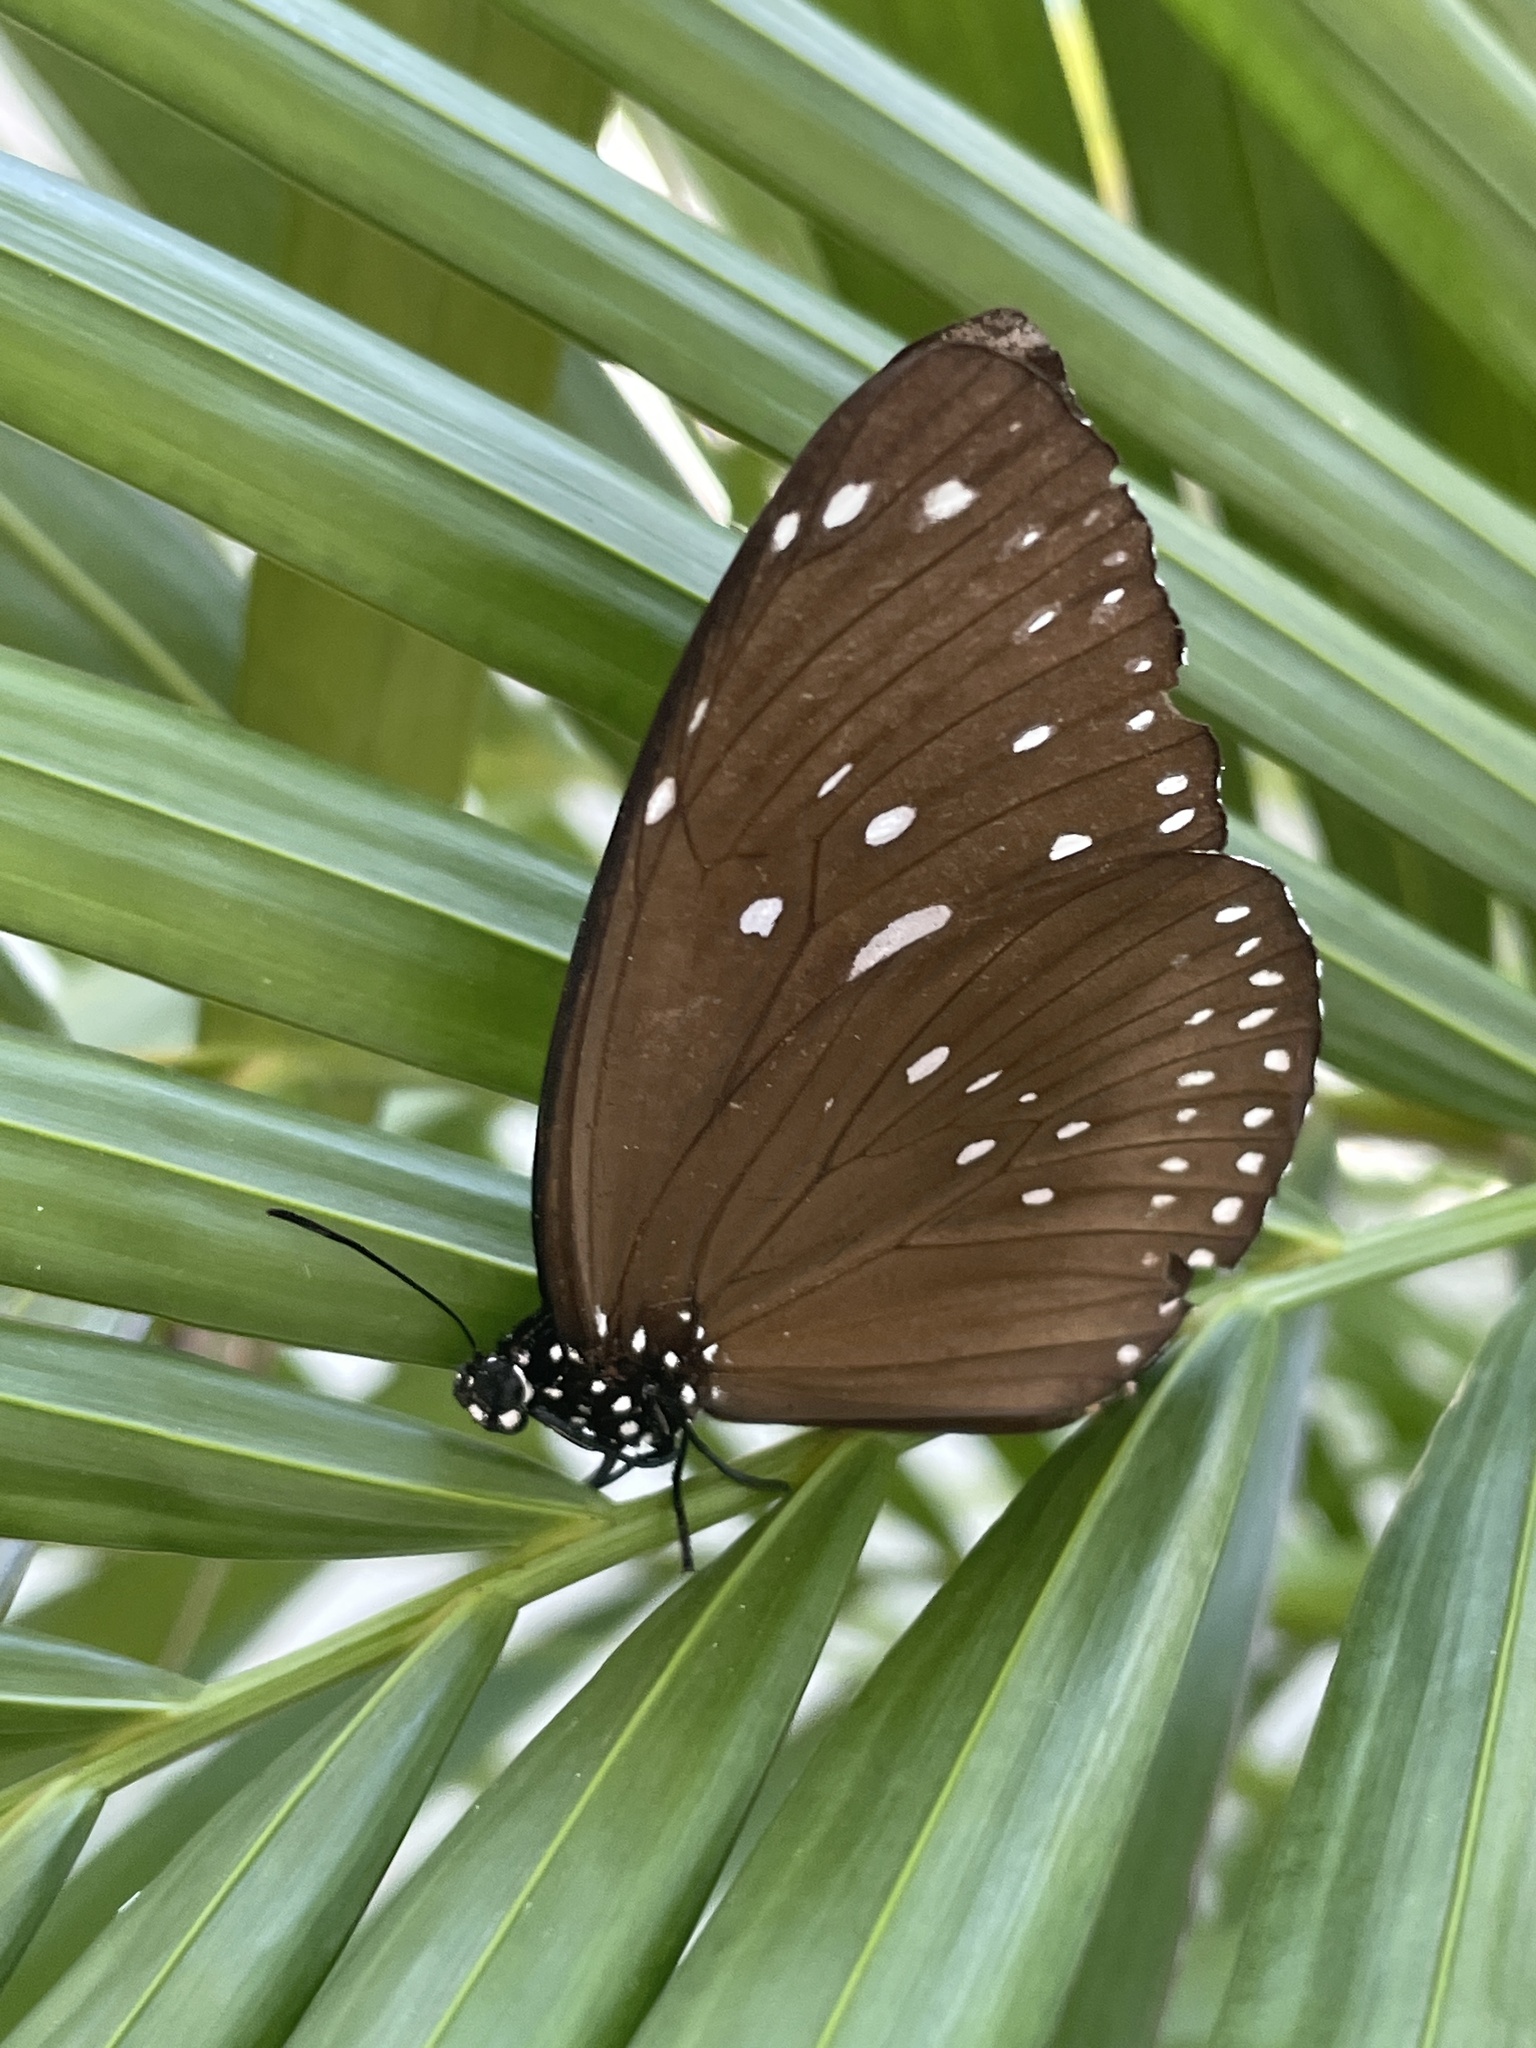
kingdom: Animalia
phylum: Arthropoda
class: Insecta
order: Lepidoptera
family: Nymphalidae
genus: Euploea
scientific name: Euploea core
